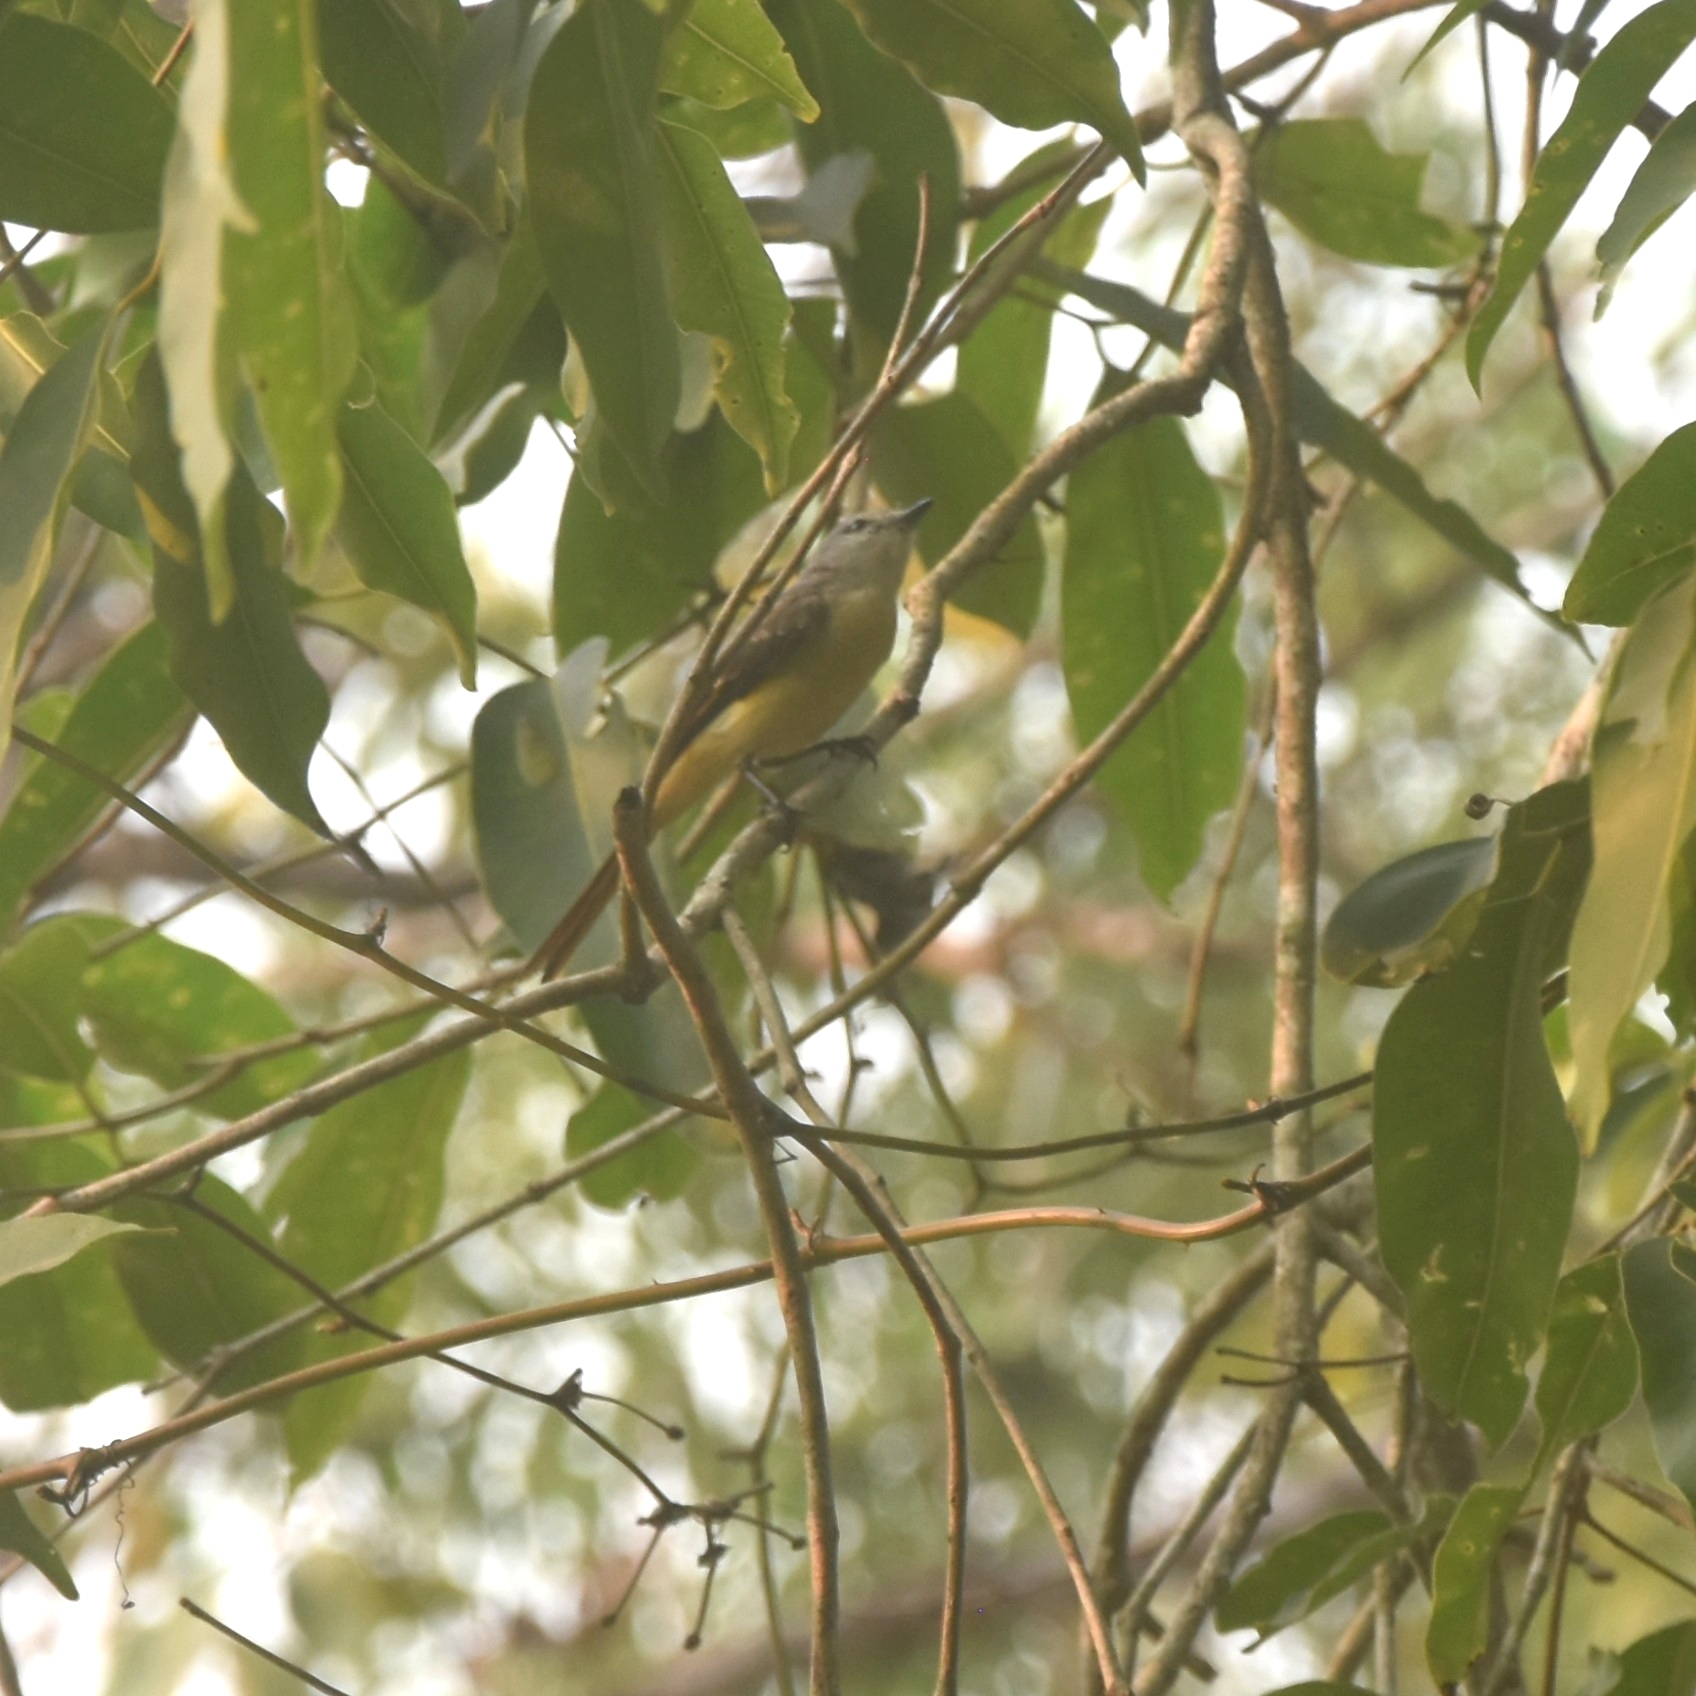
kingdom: Animalia
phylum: Chordata
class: Aves
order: Passeriformes
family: Campephagidae
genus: Pericrocotus
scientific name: Pericrocotus cinnamomeus
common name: Small minivet
